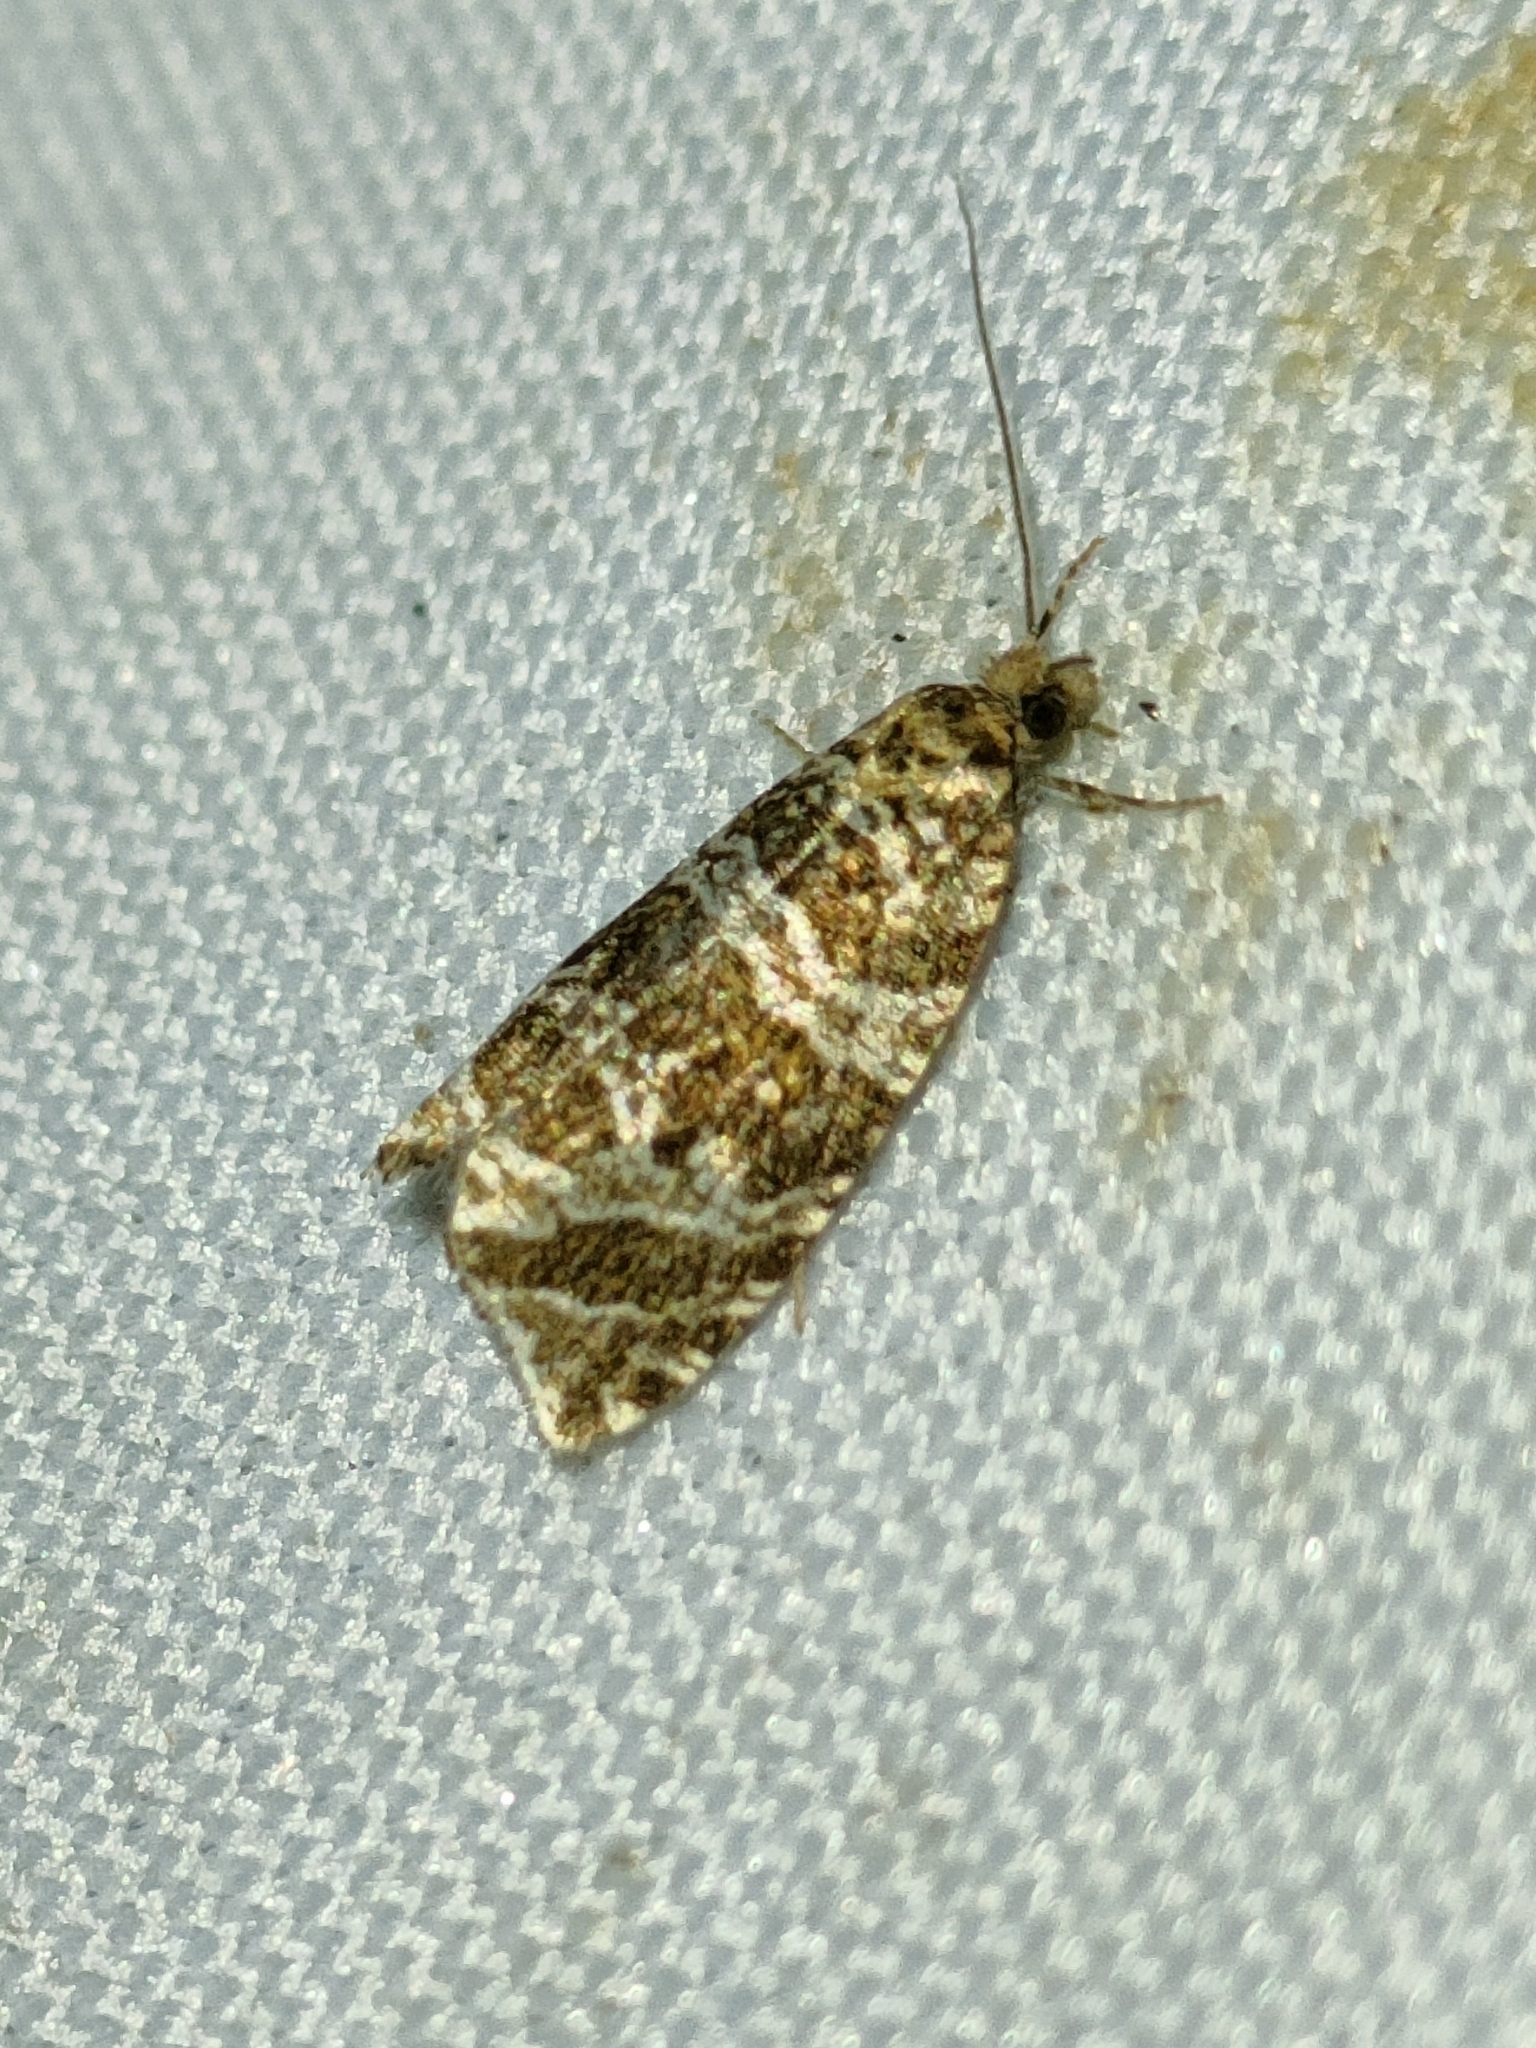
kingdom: Animalia
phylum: Arthropoda
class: Insecta
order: Lepidoptera
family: Tortricidae
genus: Syricoris
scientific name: Syricoris rivulana
